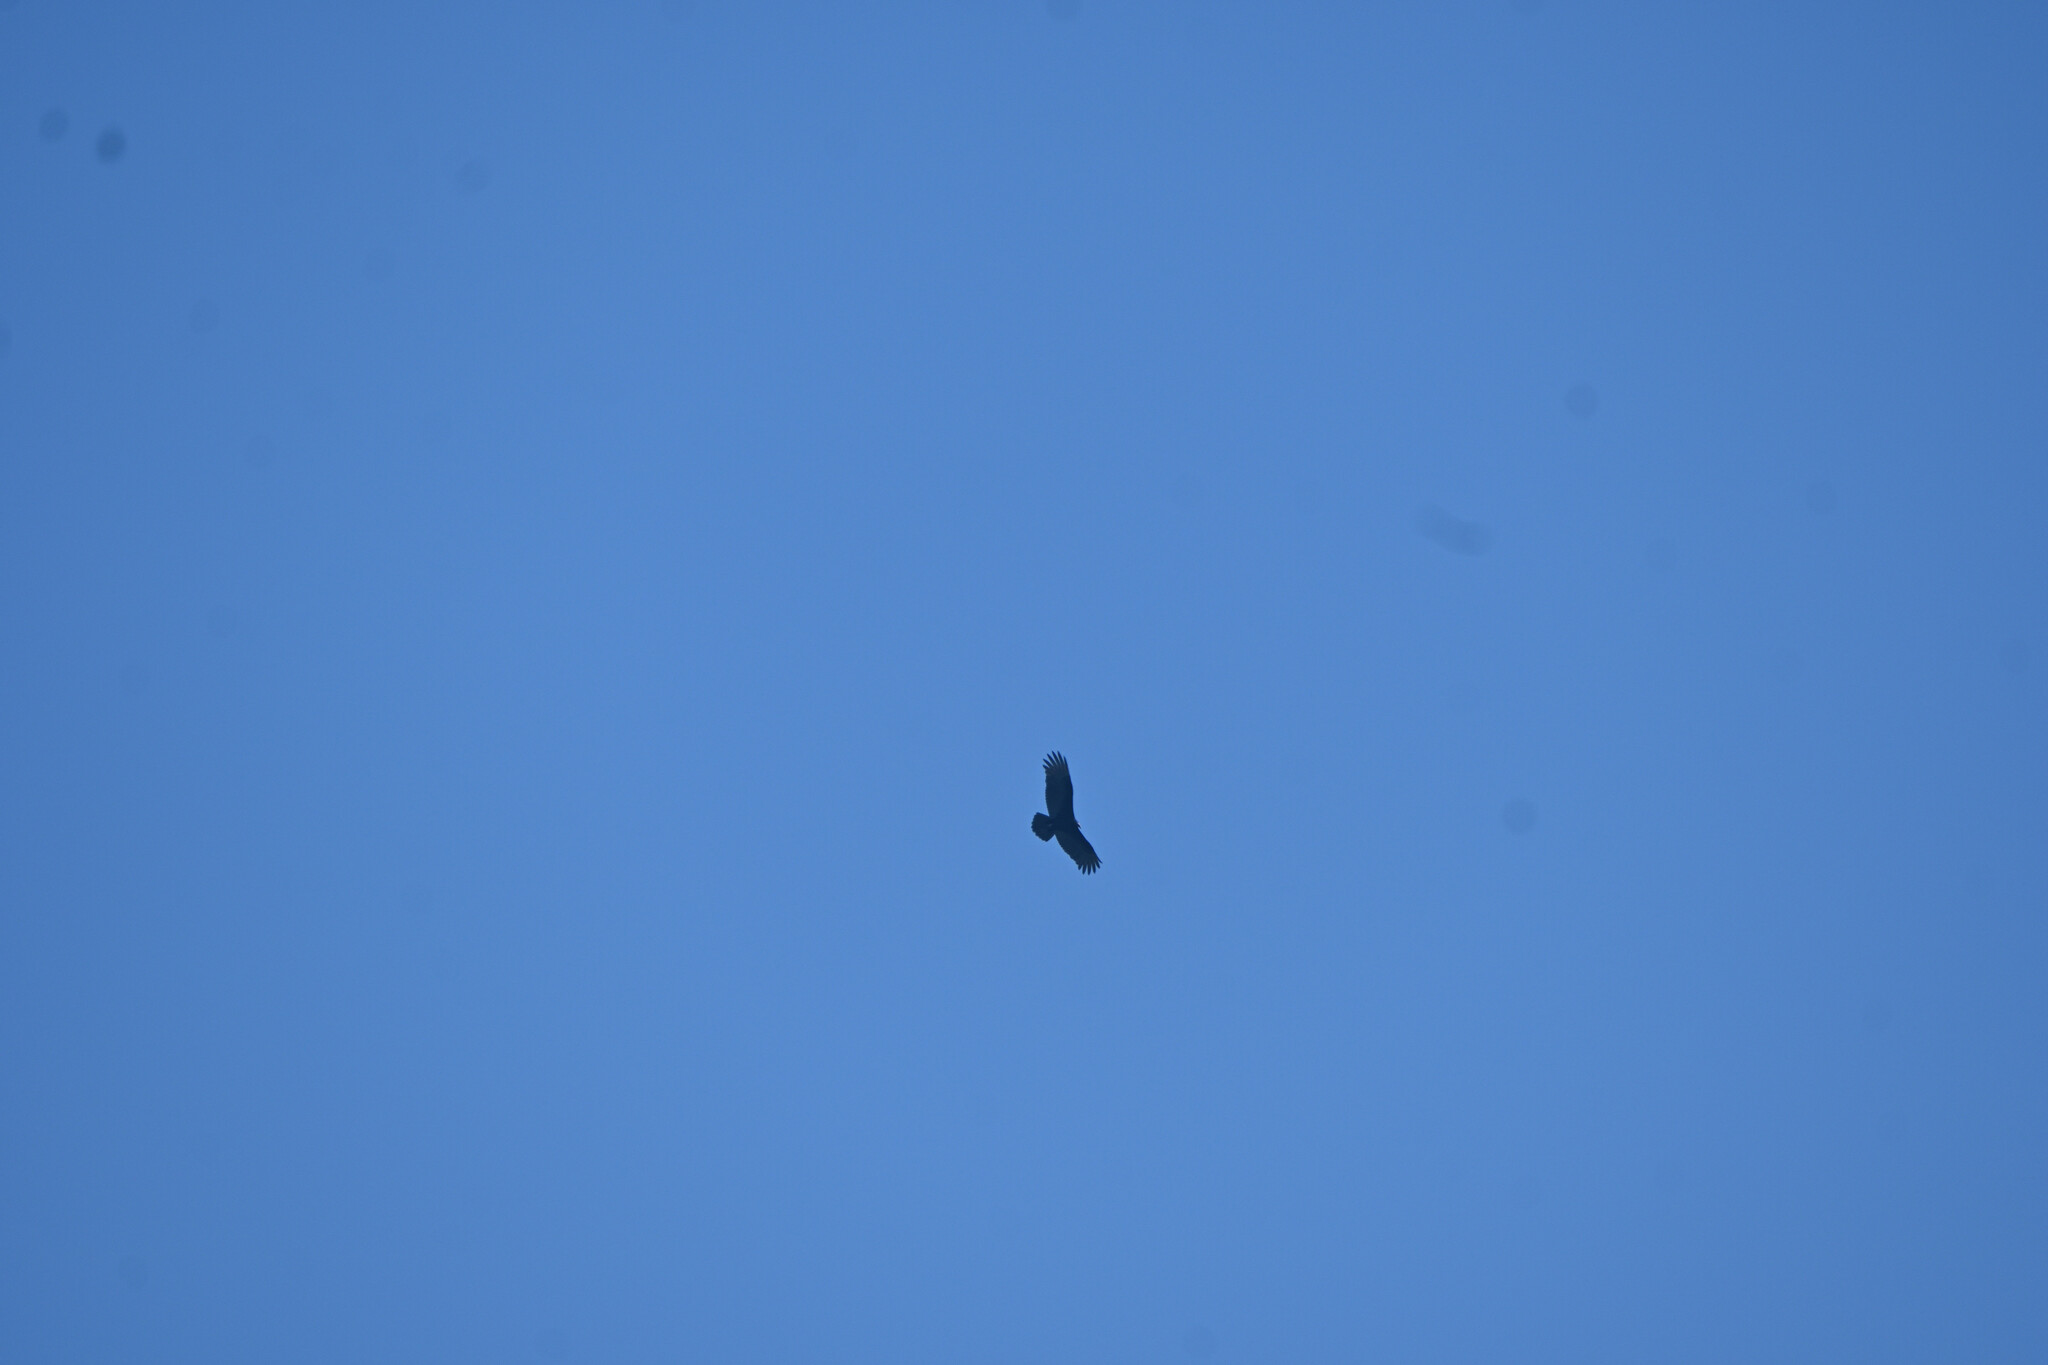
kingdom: Animalia
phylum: Chordata
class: Aves
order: Accipitriformes
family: Cathartidae
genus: Cathartes
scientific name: Cathartes aura
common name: Turkey vulture
